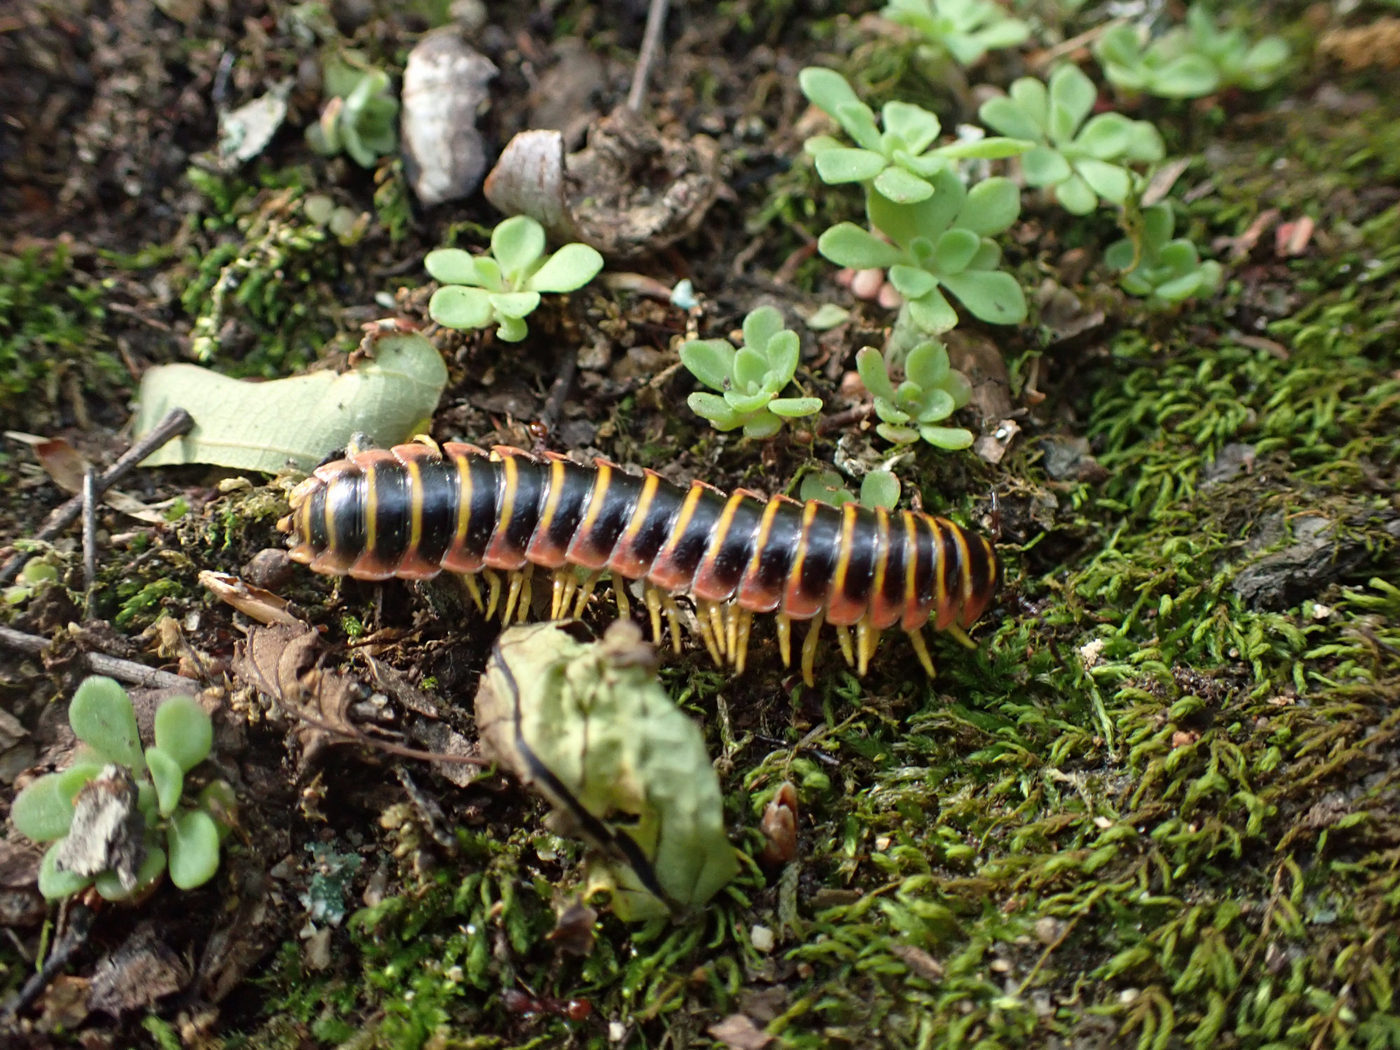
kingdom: Animalia
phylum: Arthropoda
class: Diplopoda
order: Polydesmida
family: Xystodesmidae
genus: Apheloria
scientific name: Apheloria virginiensis
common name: Black-and-gold flat millipede
